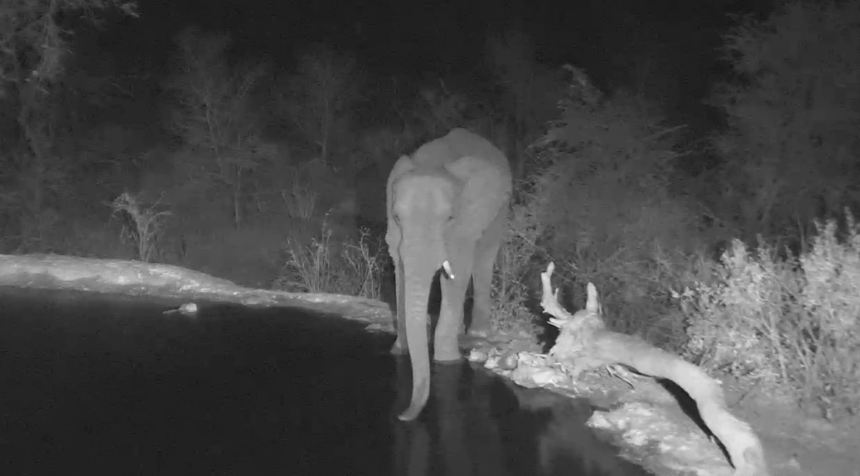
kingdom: Animalia
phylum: Chordata
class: Mammalia
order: Proboscidea
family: Elephantidae
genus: Loxodonta
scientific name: Loxodonta africana
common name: African elephant
